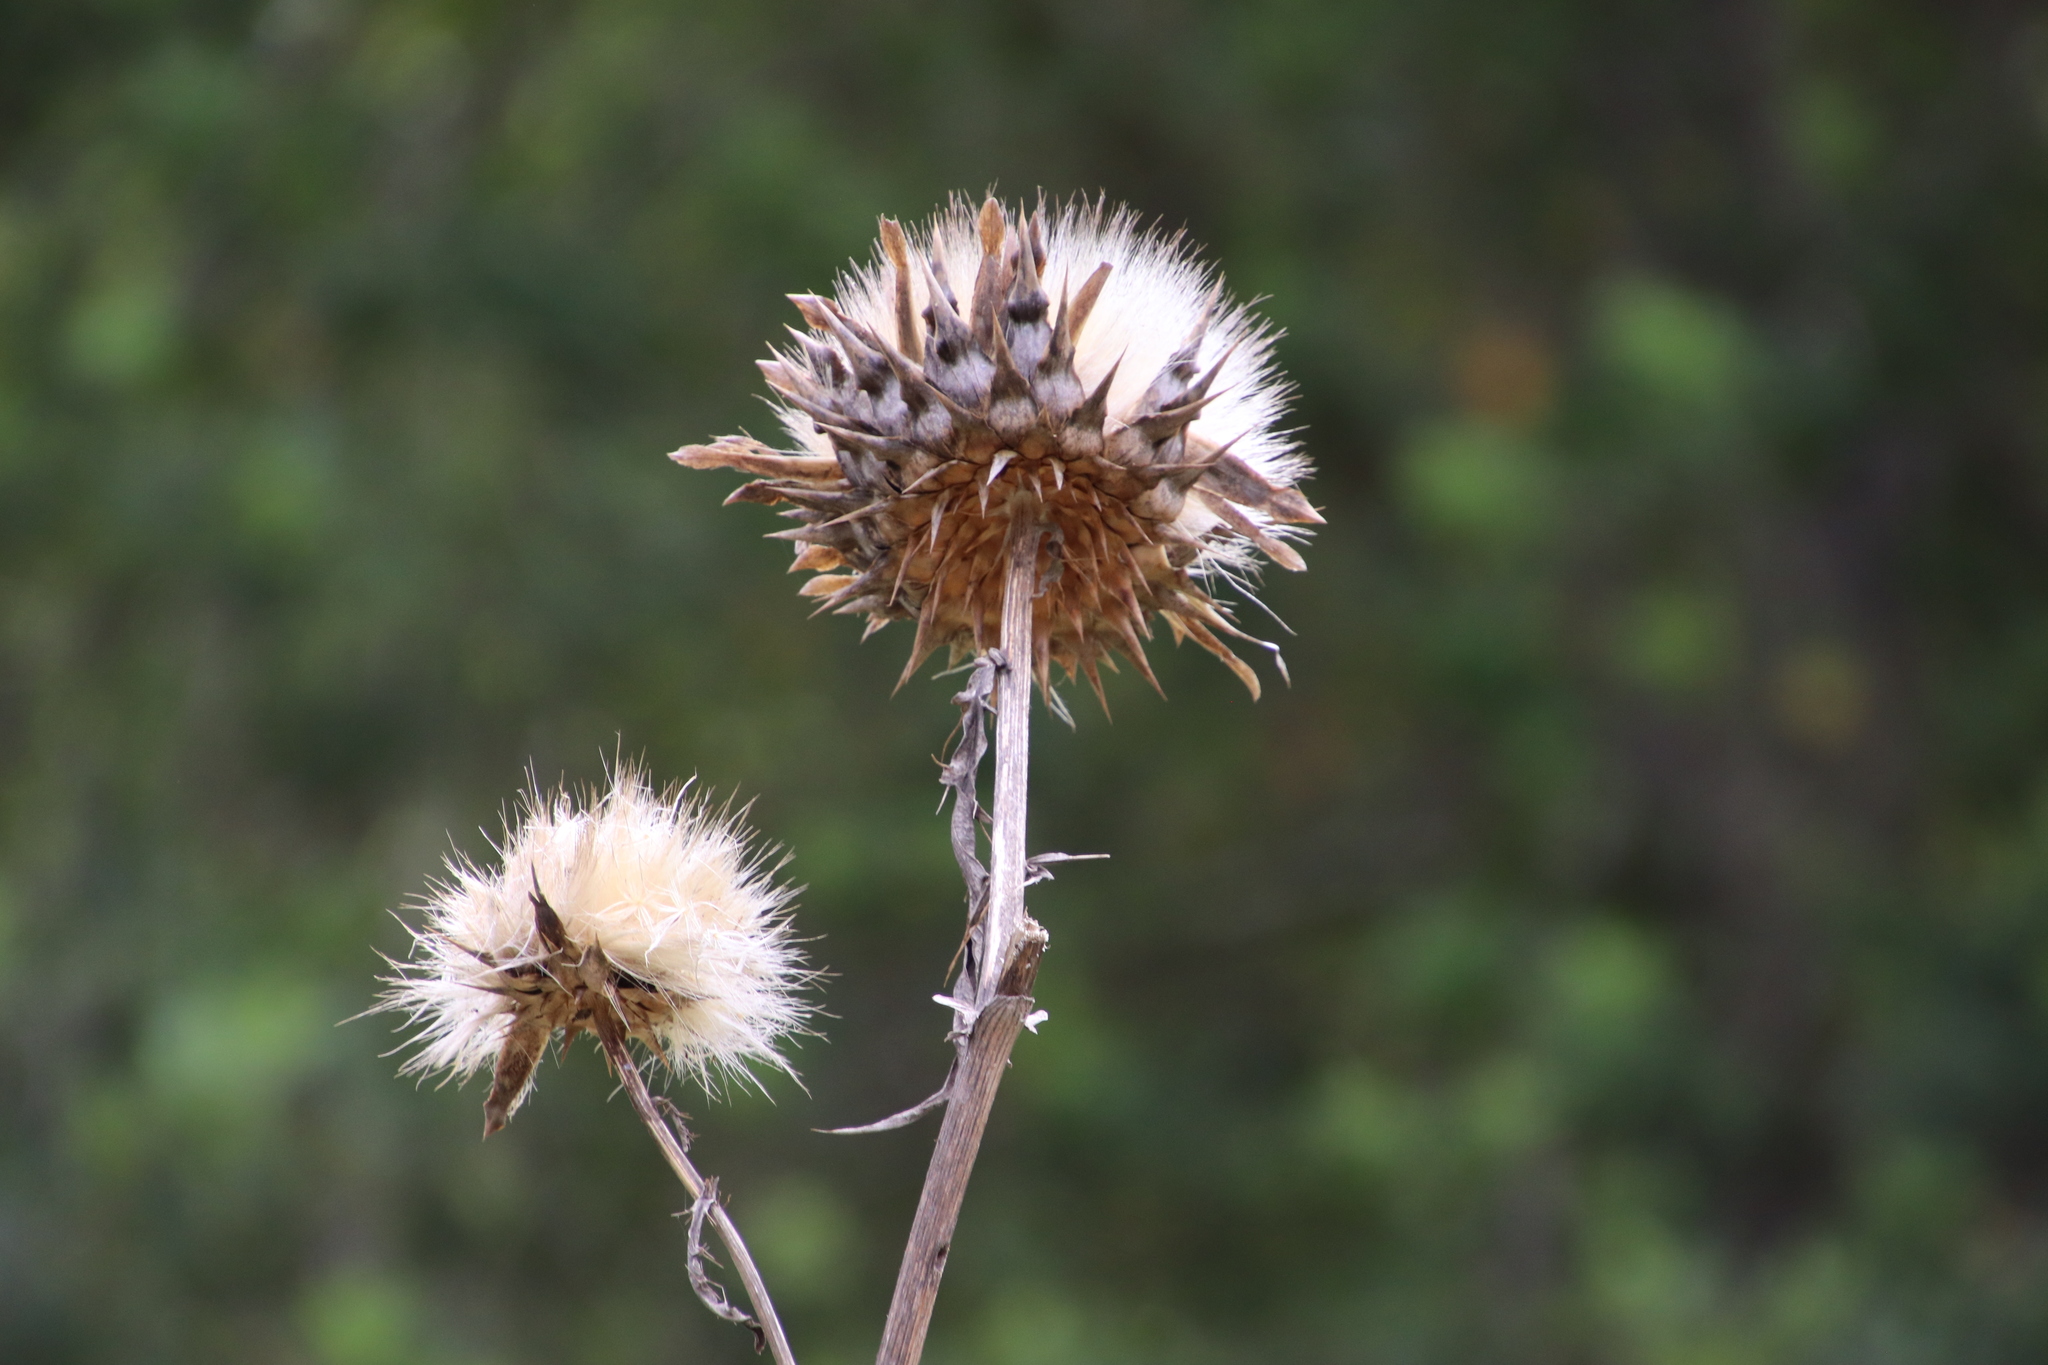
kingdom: Plantae
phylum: Tracheophyta
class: Magnoliopsida
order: Asterales
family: Asteraceae
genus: Cynara
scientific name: Cynara cardunculus
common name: Globe artichoke
